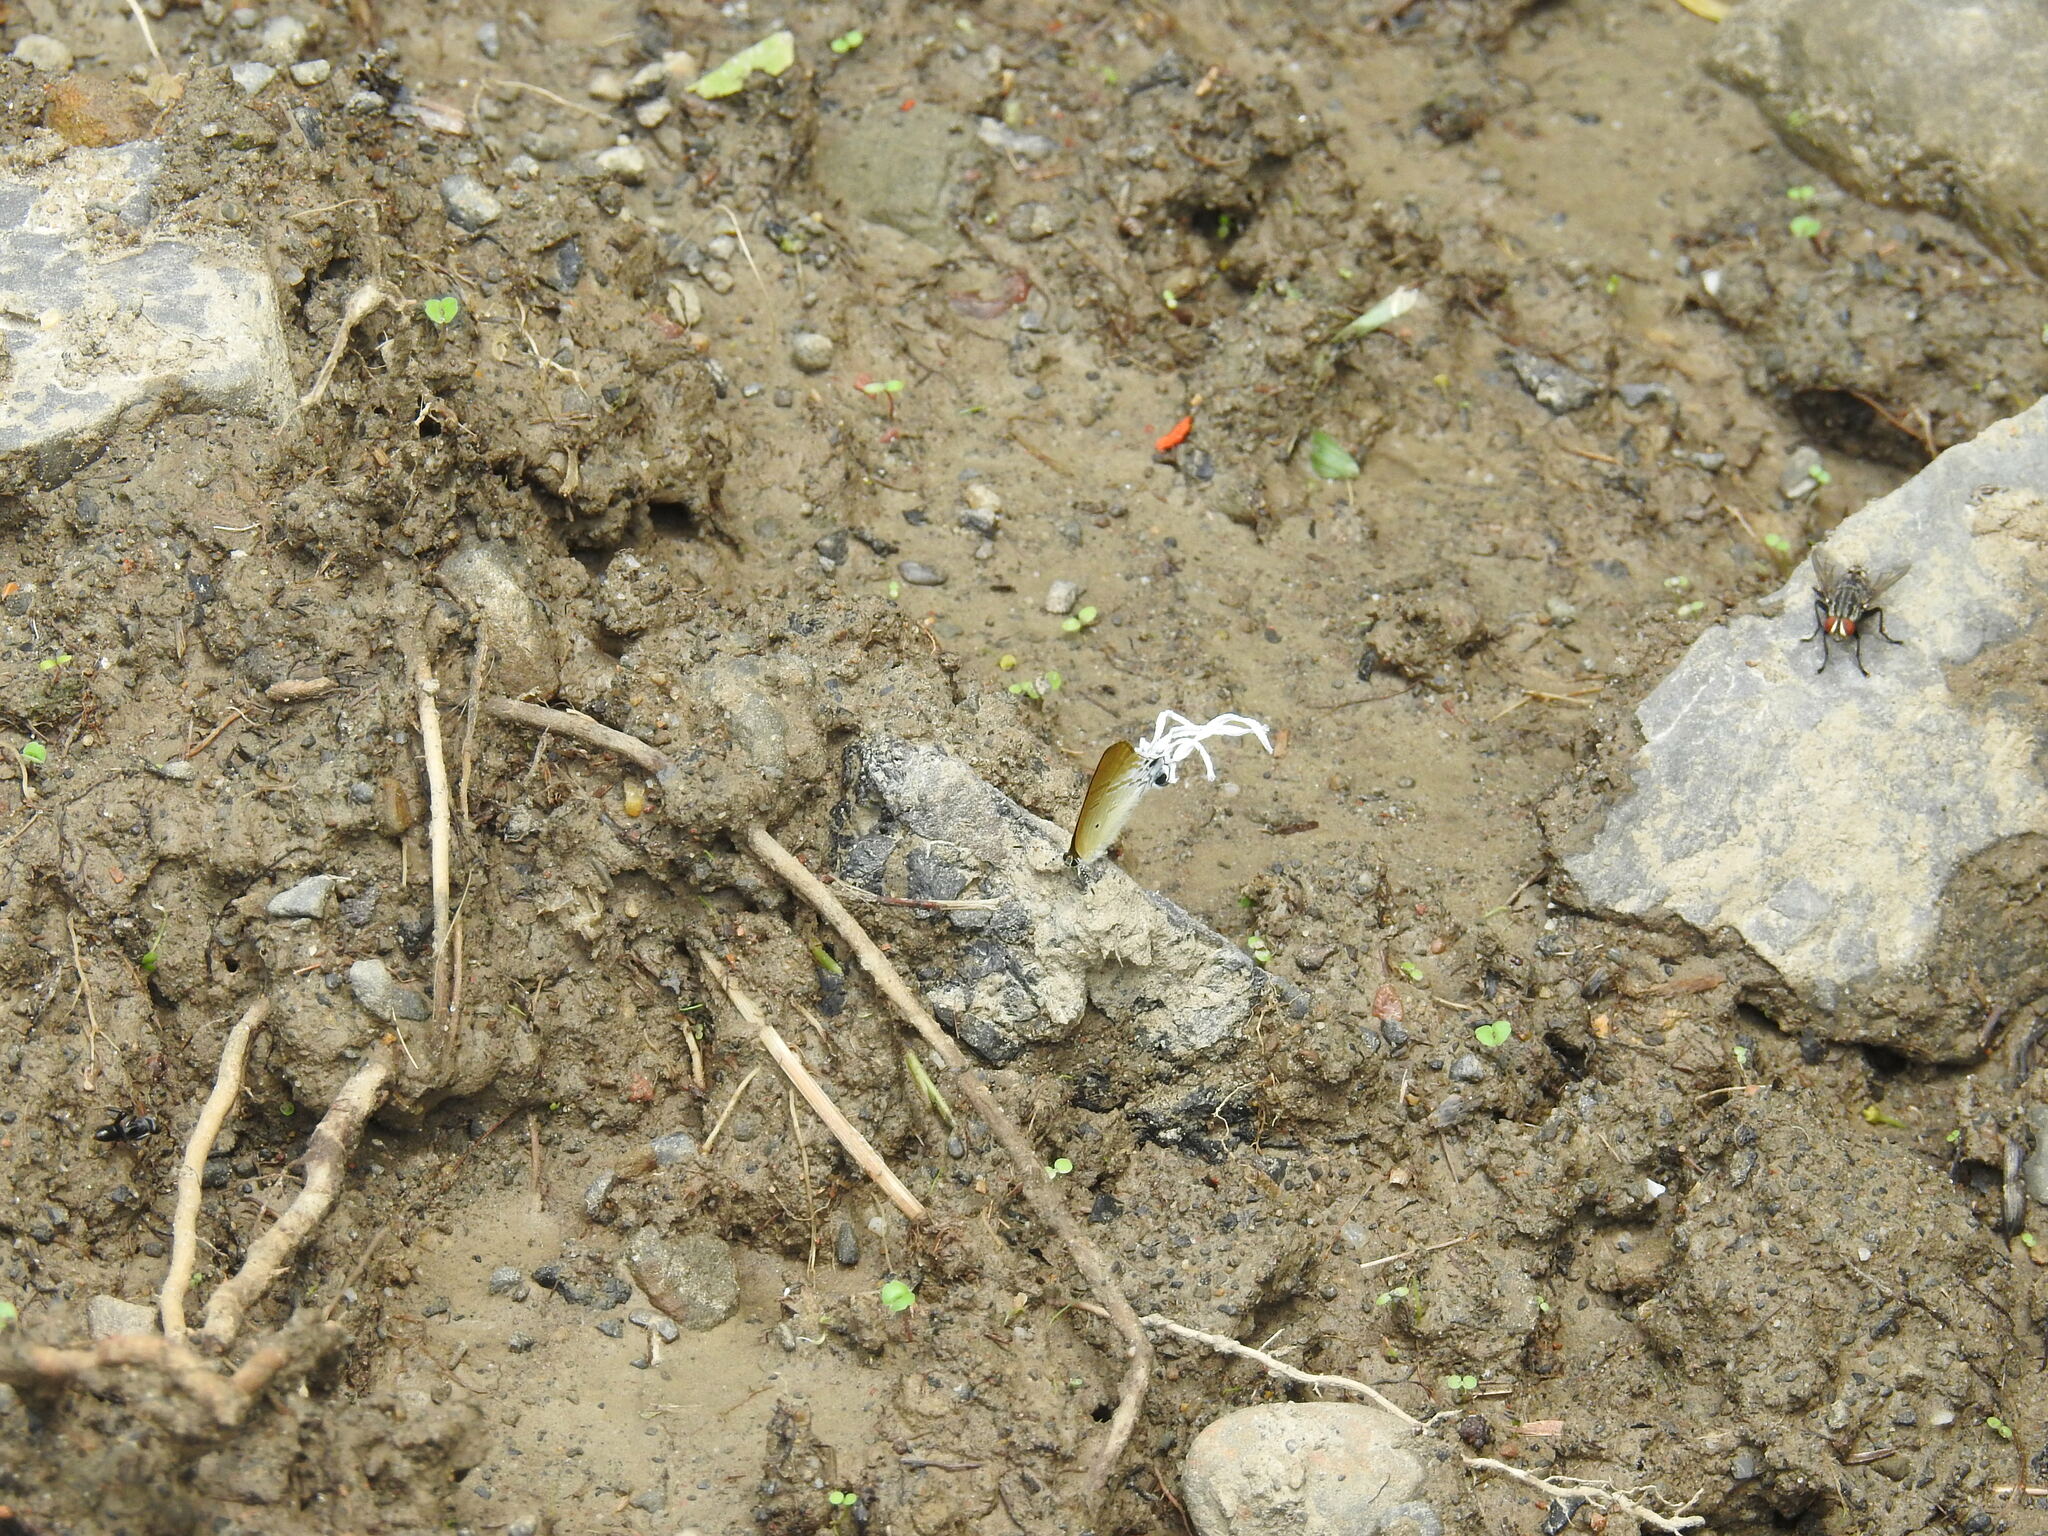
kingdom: Animalia
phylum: Arthropoda
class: Insecta
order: Lepidoptera
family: Lycaenidae
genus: Zeltus
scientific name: Zeltus amasa
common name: Fluffy tit
